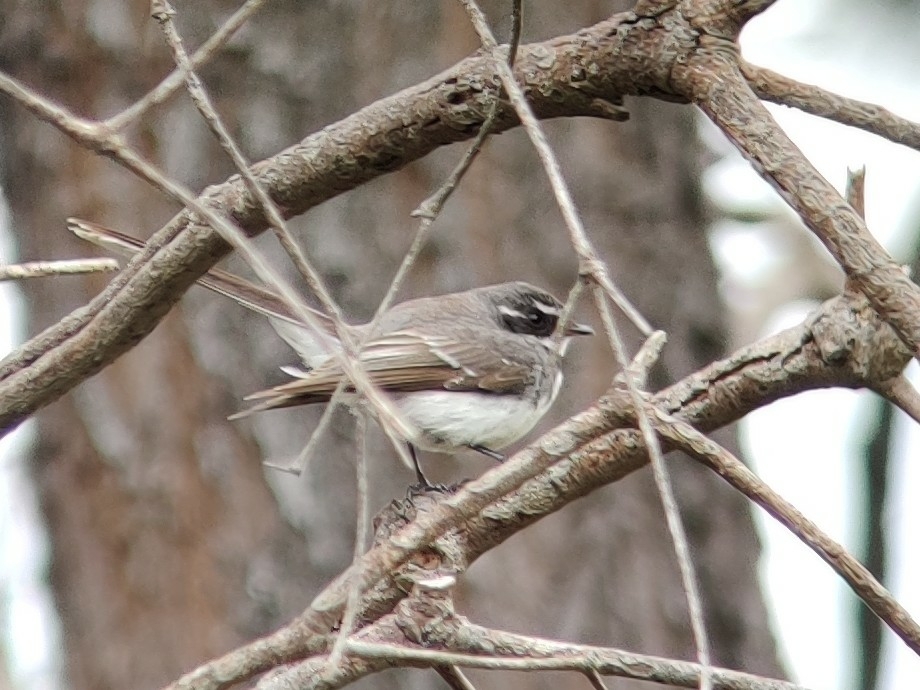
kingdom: Animalia
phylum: Chordata
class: Aves
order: Passeriformes
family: Rhipiduridae
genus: Rhipidura
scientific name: Rhipidura albiscapa
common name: Grey fantail
